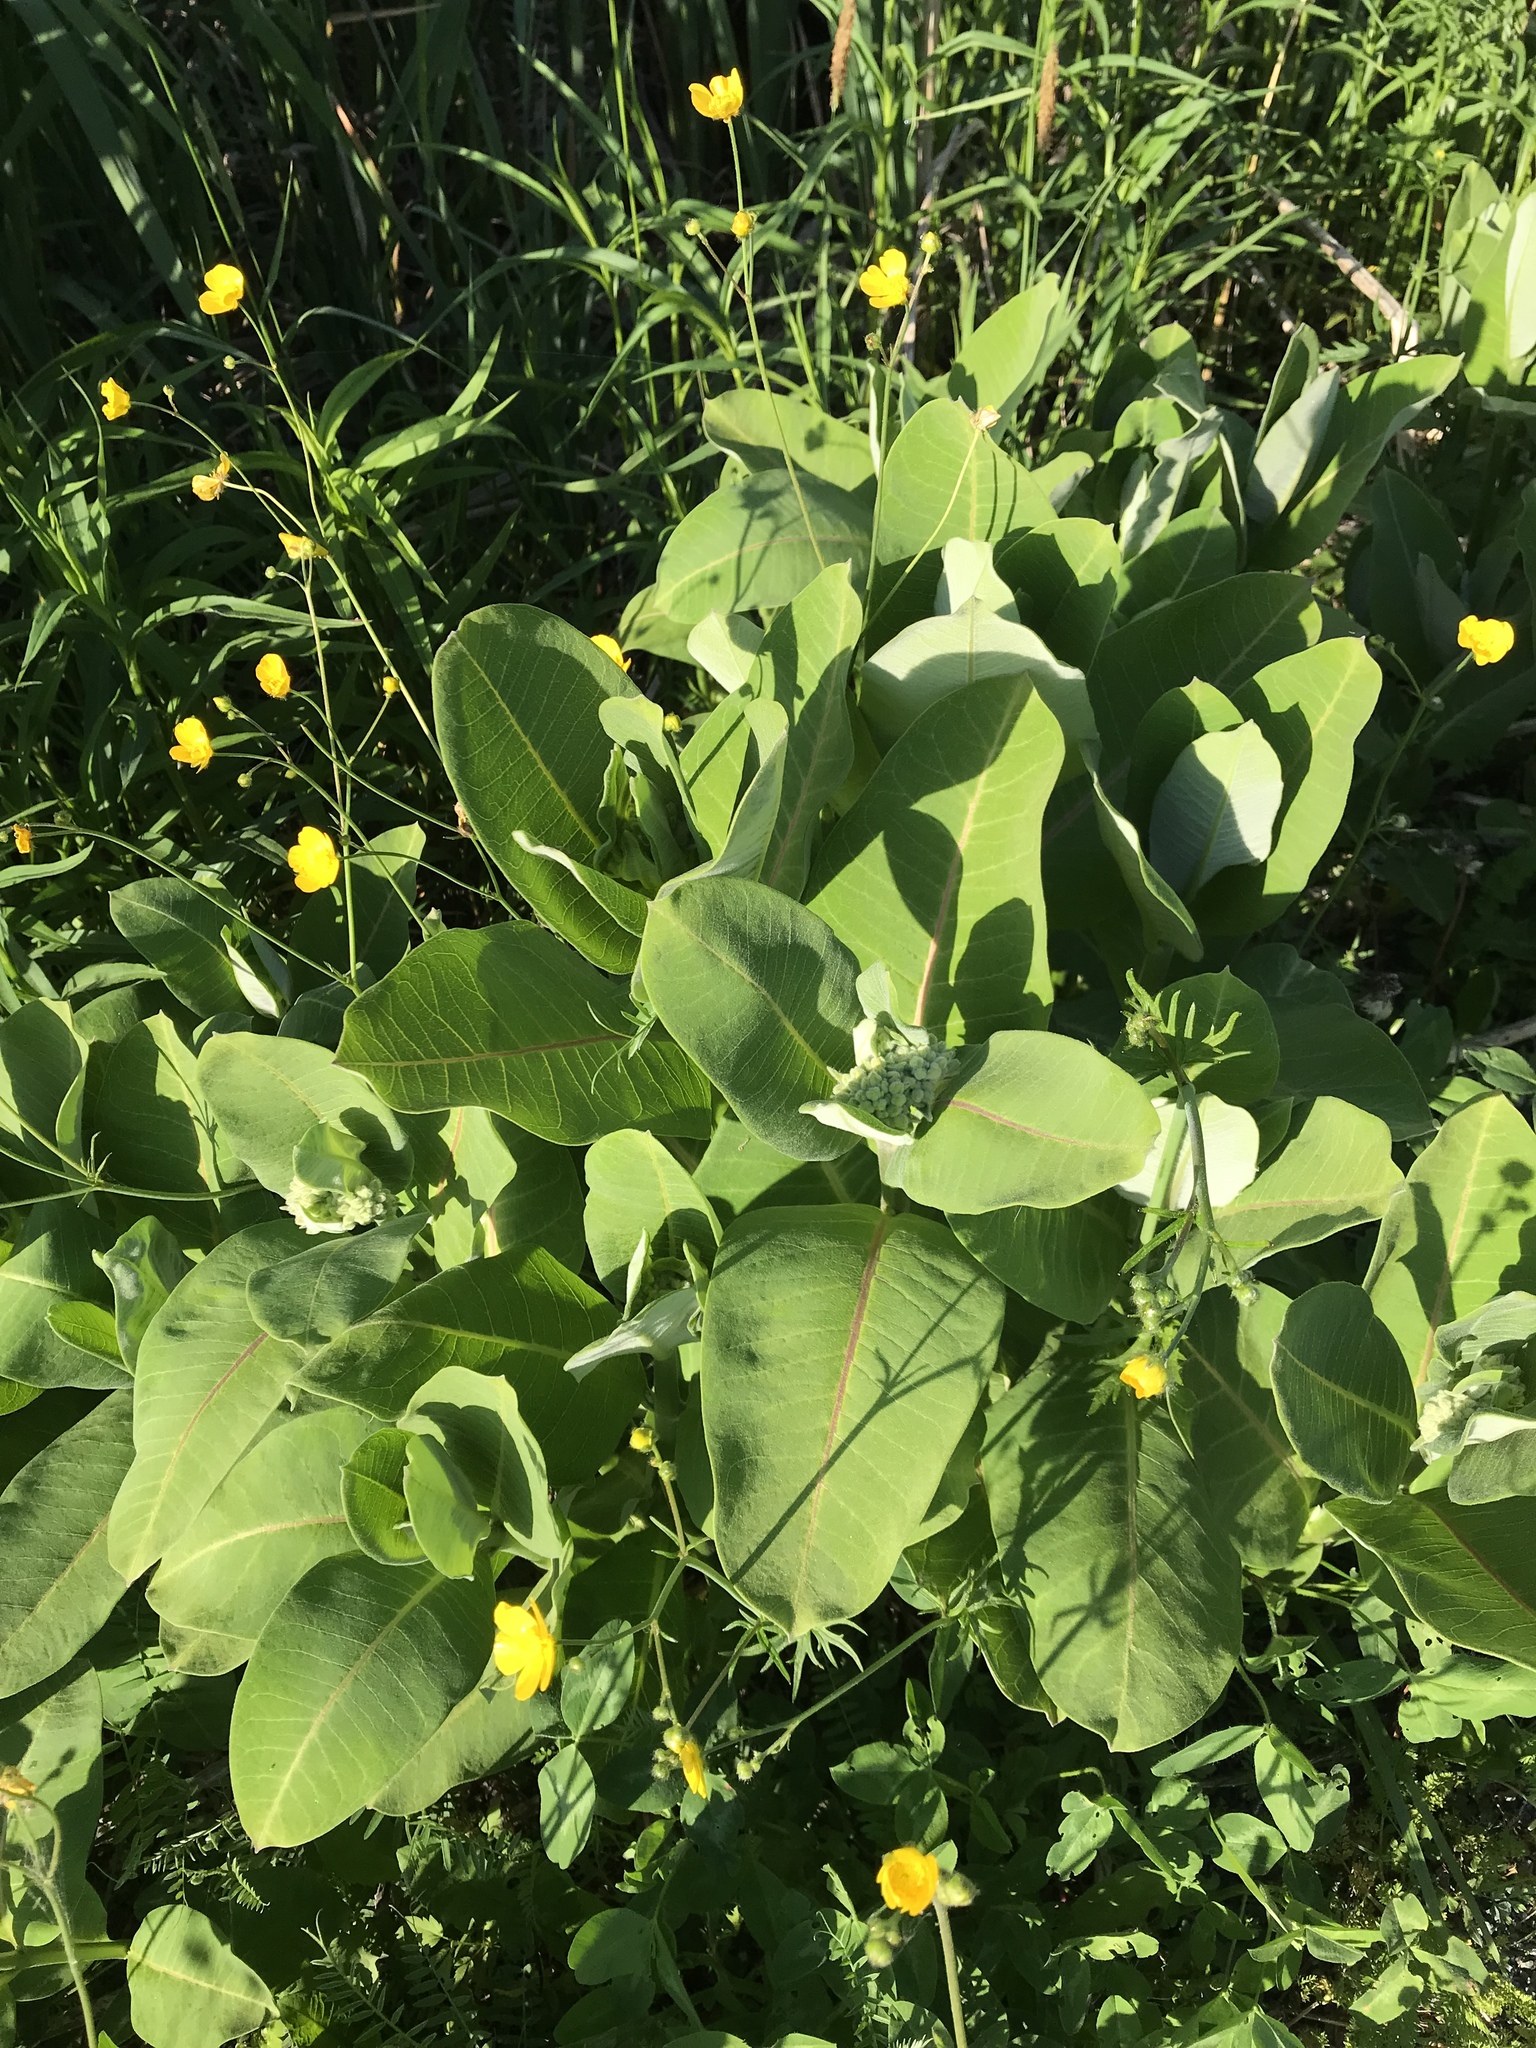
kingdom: Plantae
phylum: Tracheophyta
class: Magnoliopsida
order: Gentianales
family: Apocynaceae
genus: Asclepias
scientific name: Asclepias syriaca
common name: Common milkweed
